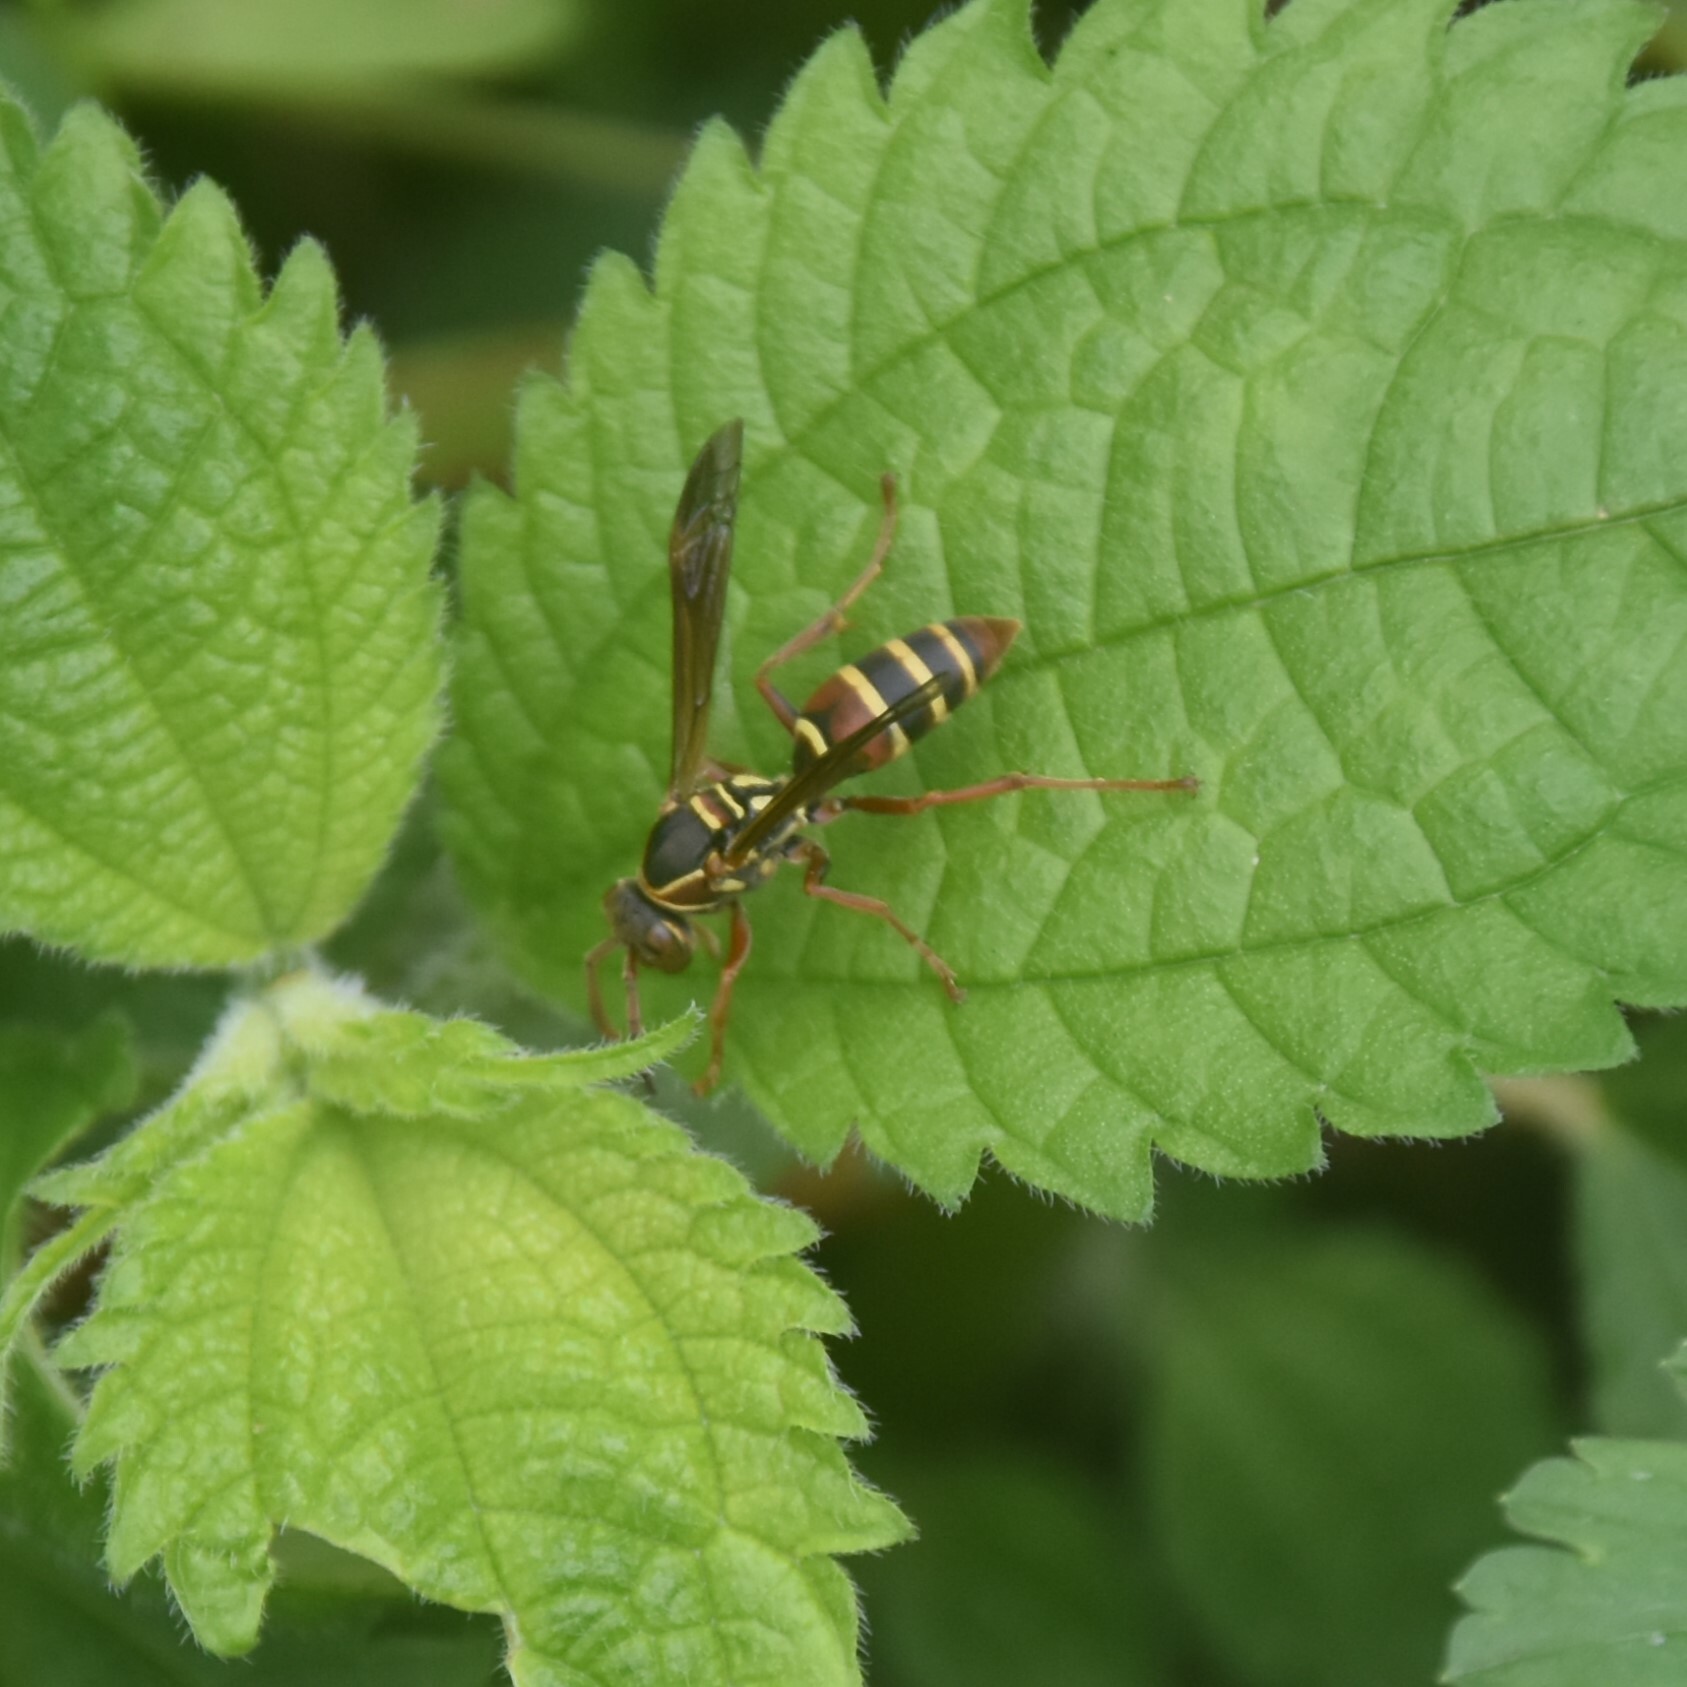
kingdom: Animalia
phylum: Arthropoda
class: Insecta
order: Hymenoptera
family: Eumenidae
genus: Knemodynerus
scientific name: Knemodynerus multimaculatus
